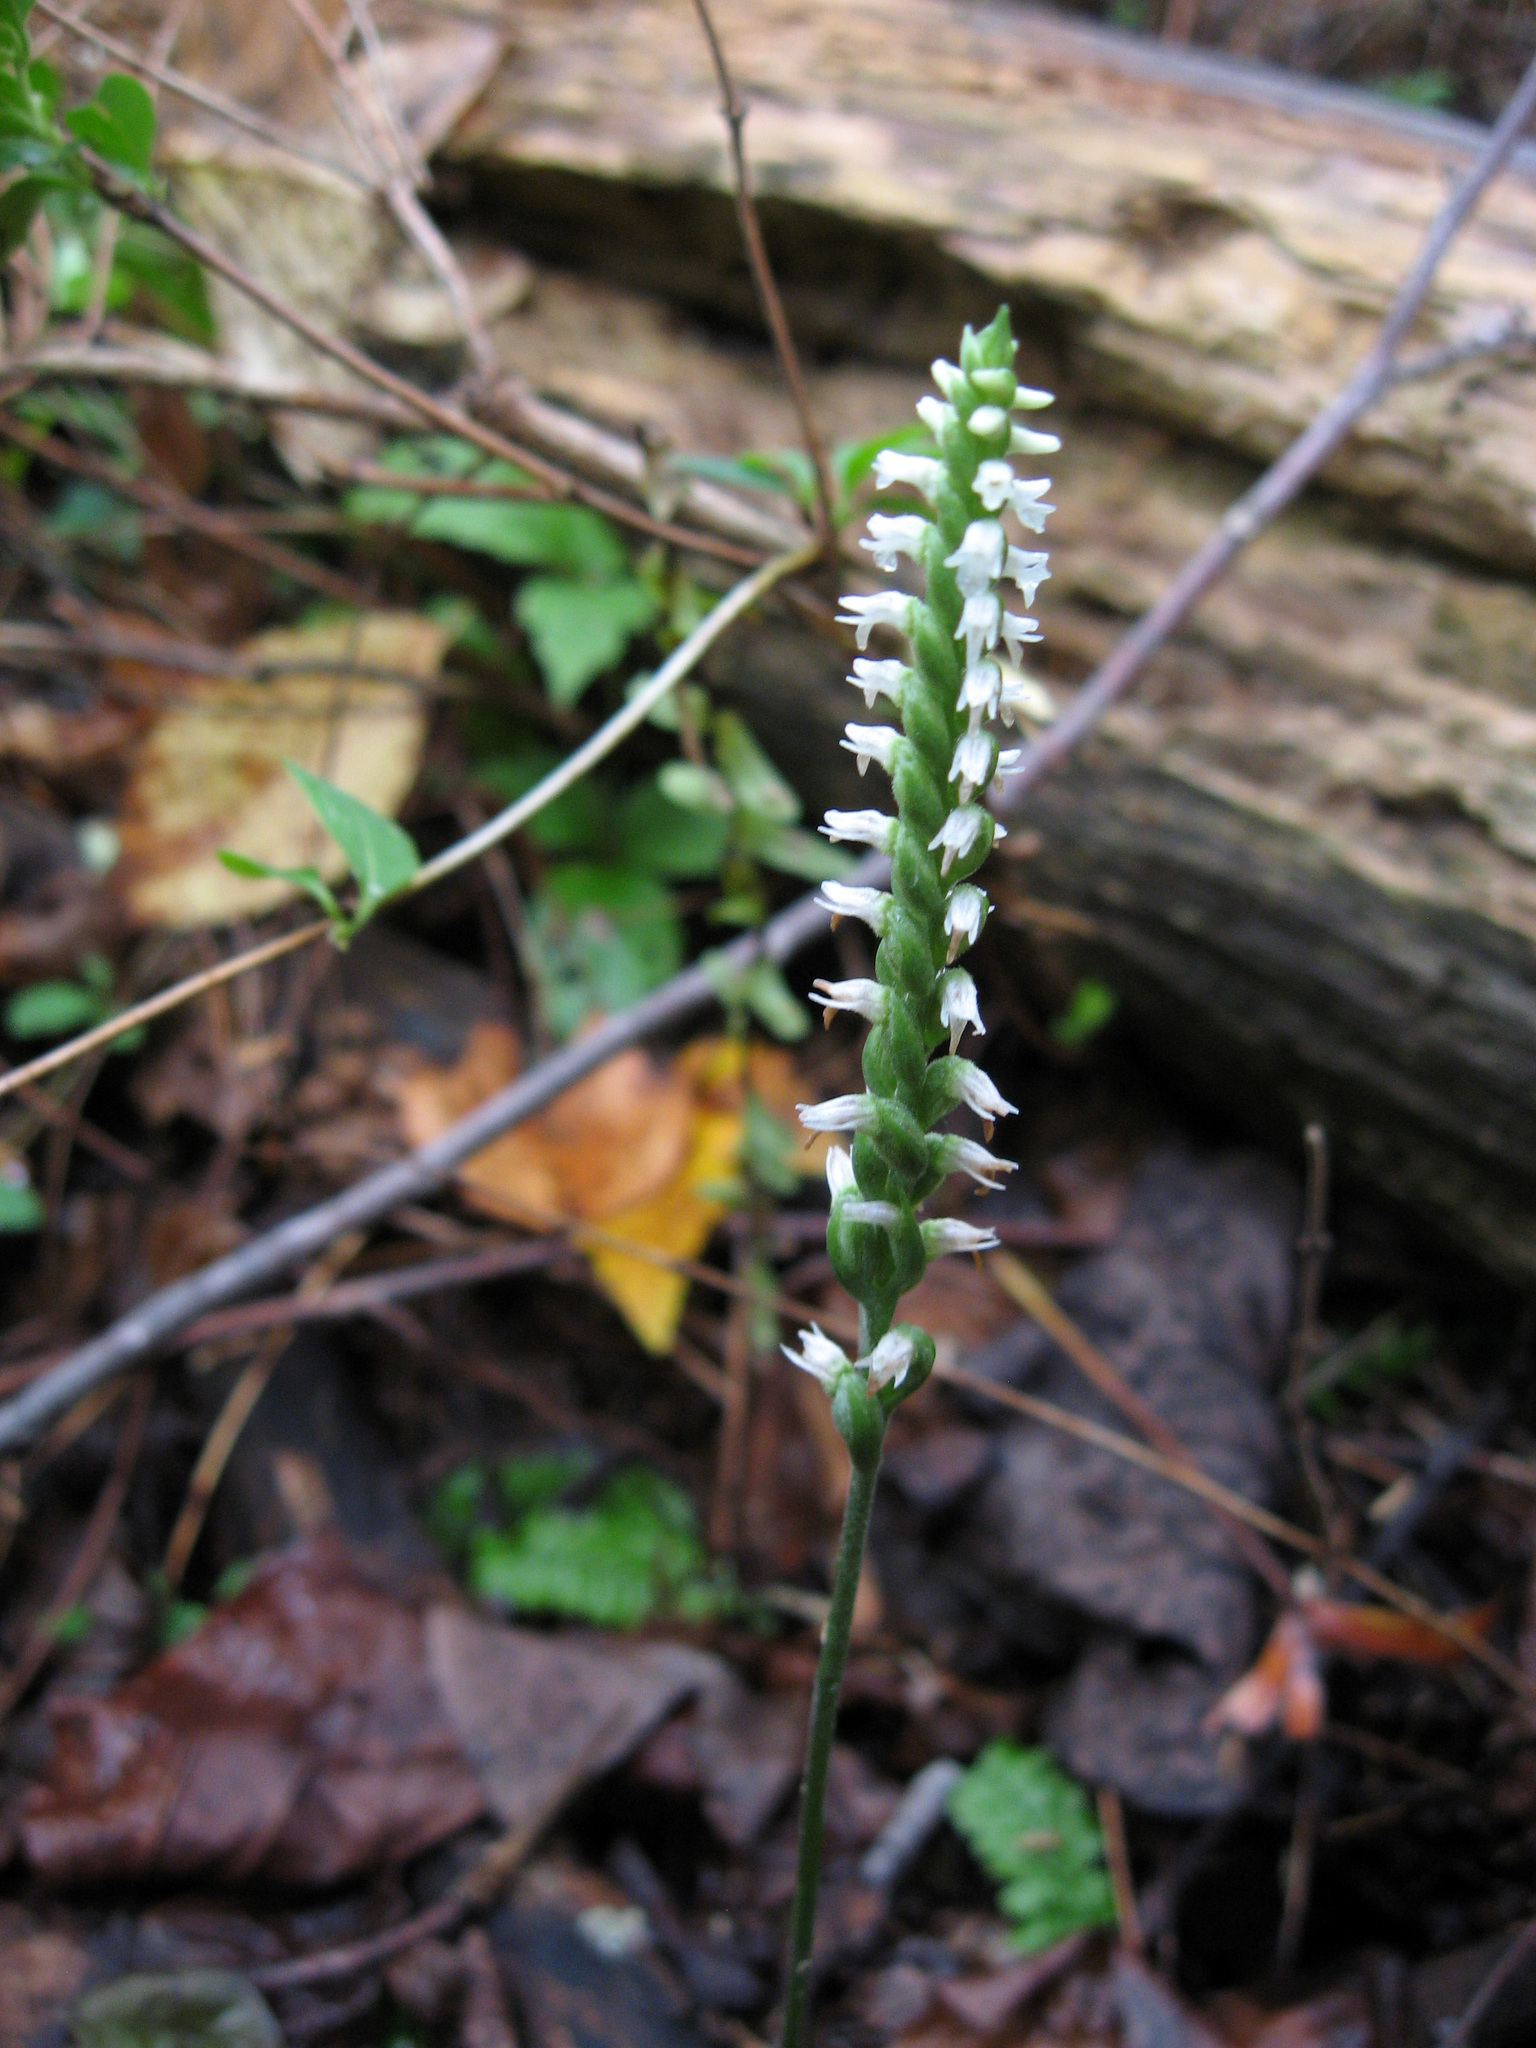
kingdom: Plantae
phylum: Tracheophyta
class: Liliopsida
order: Asparagales
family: Orchidaceae
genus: Spiranthes
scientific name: Spiranthes ovalis
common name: October ladies'-tresses
